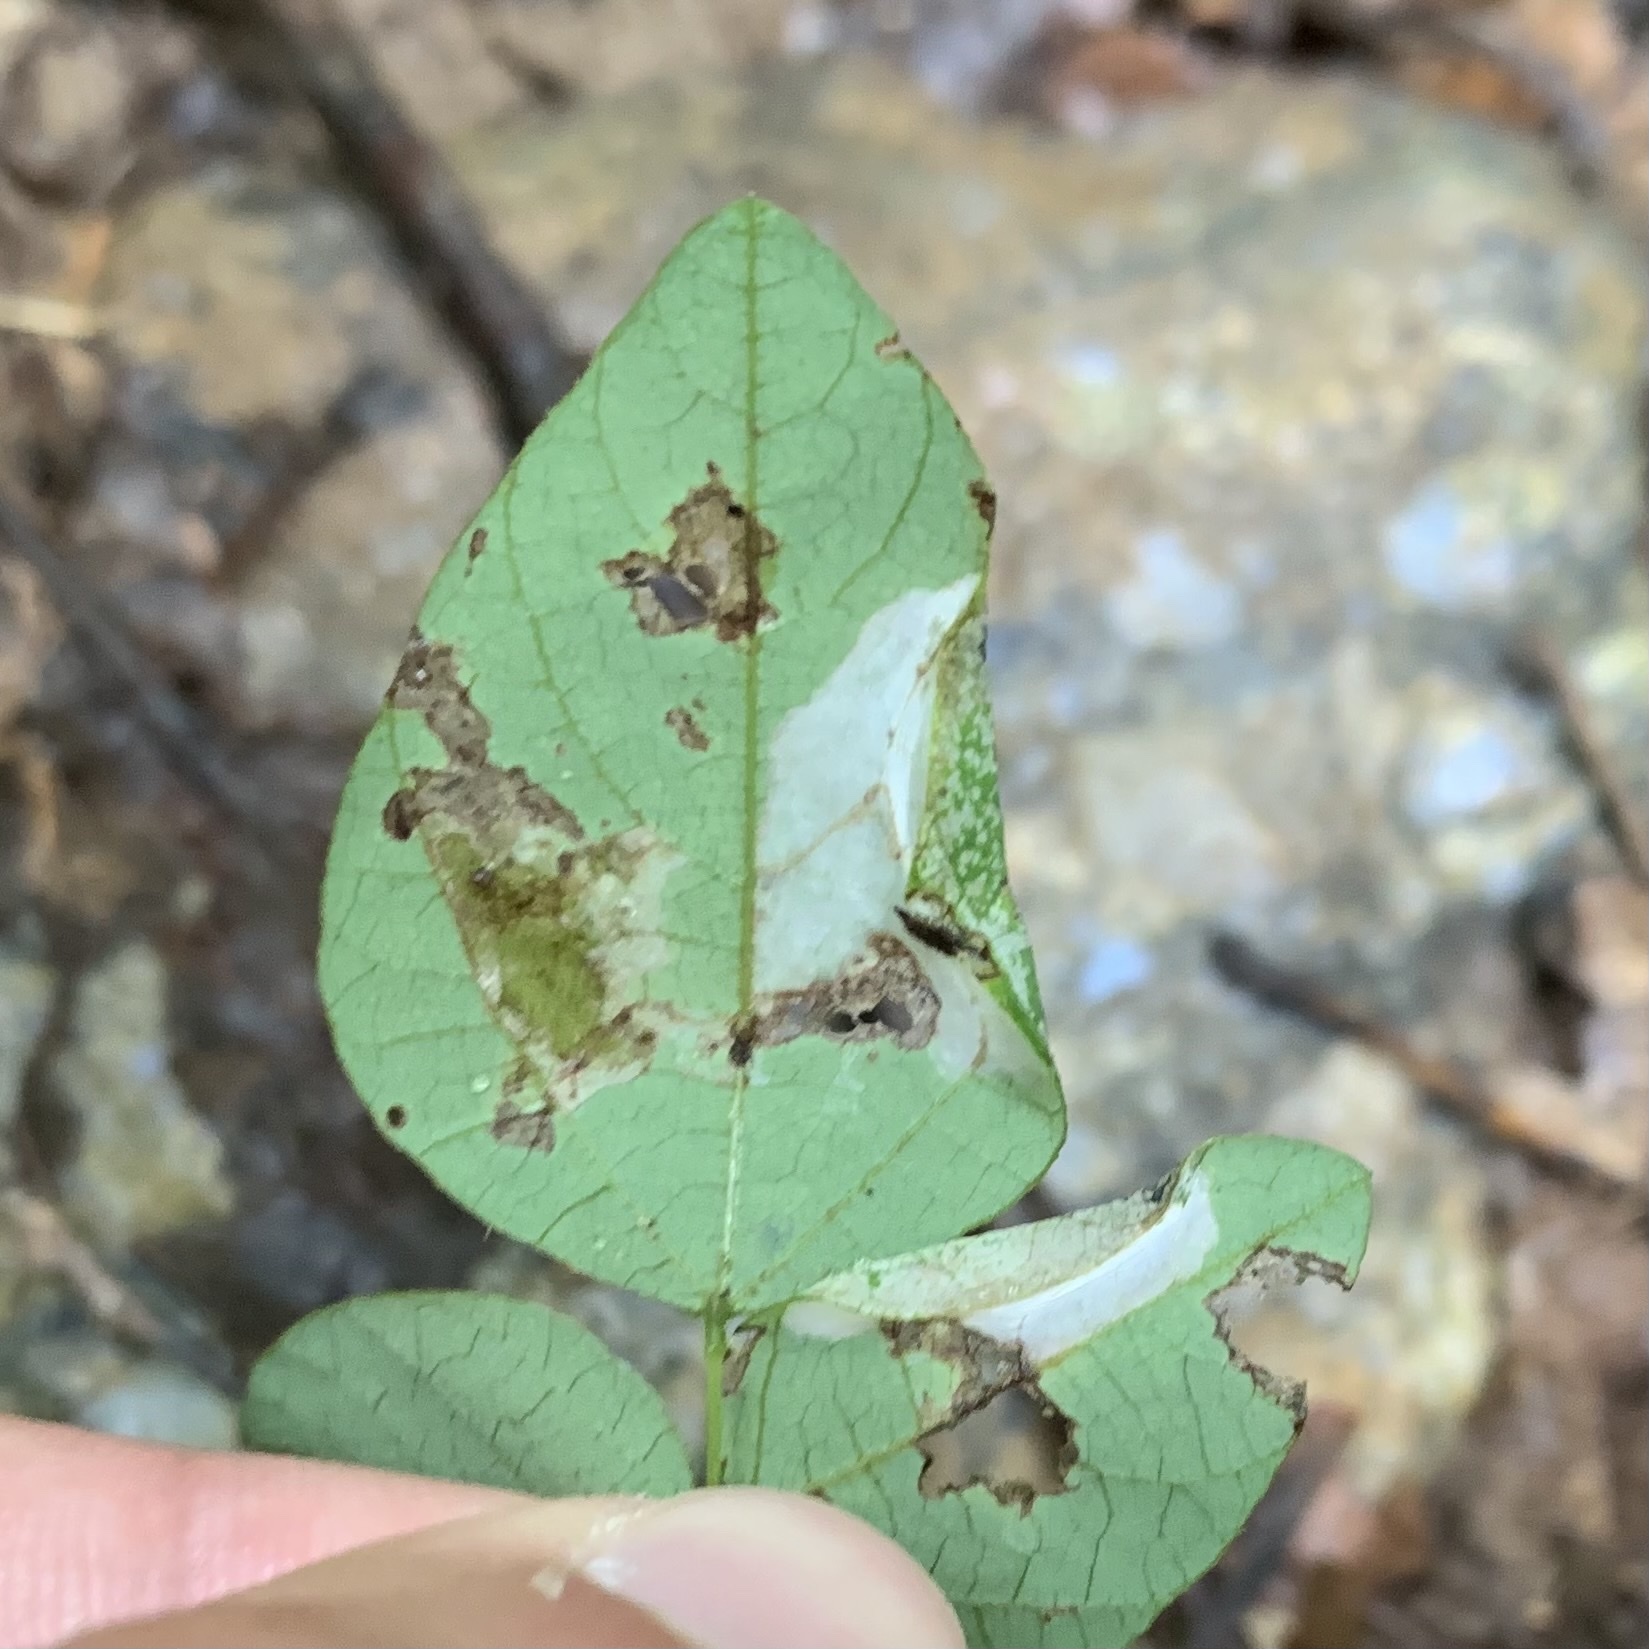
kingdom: Animalia
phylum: Arthropoda
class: Insecta
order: Lepidoptera
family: Gracillariidae
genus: Macrosaccus
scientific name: Macrosaccus morrisella
